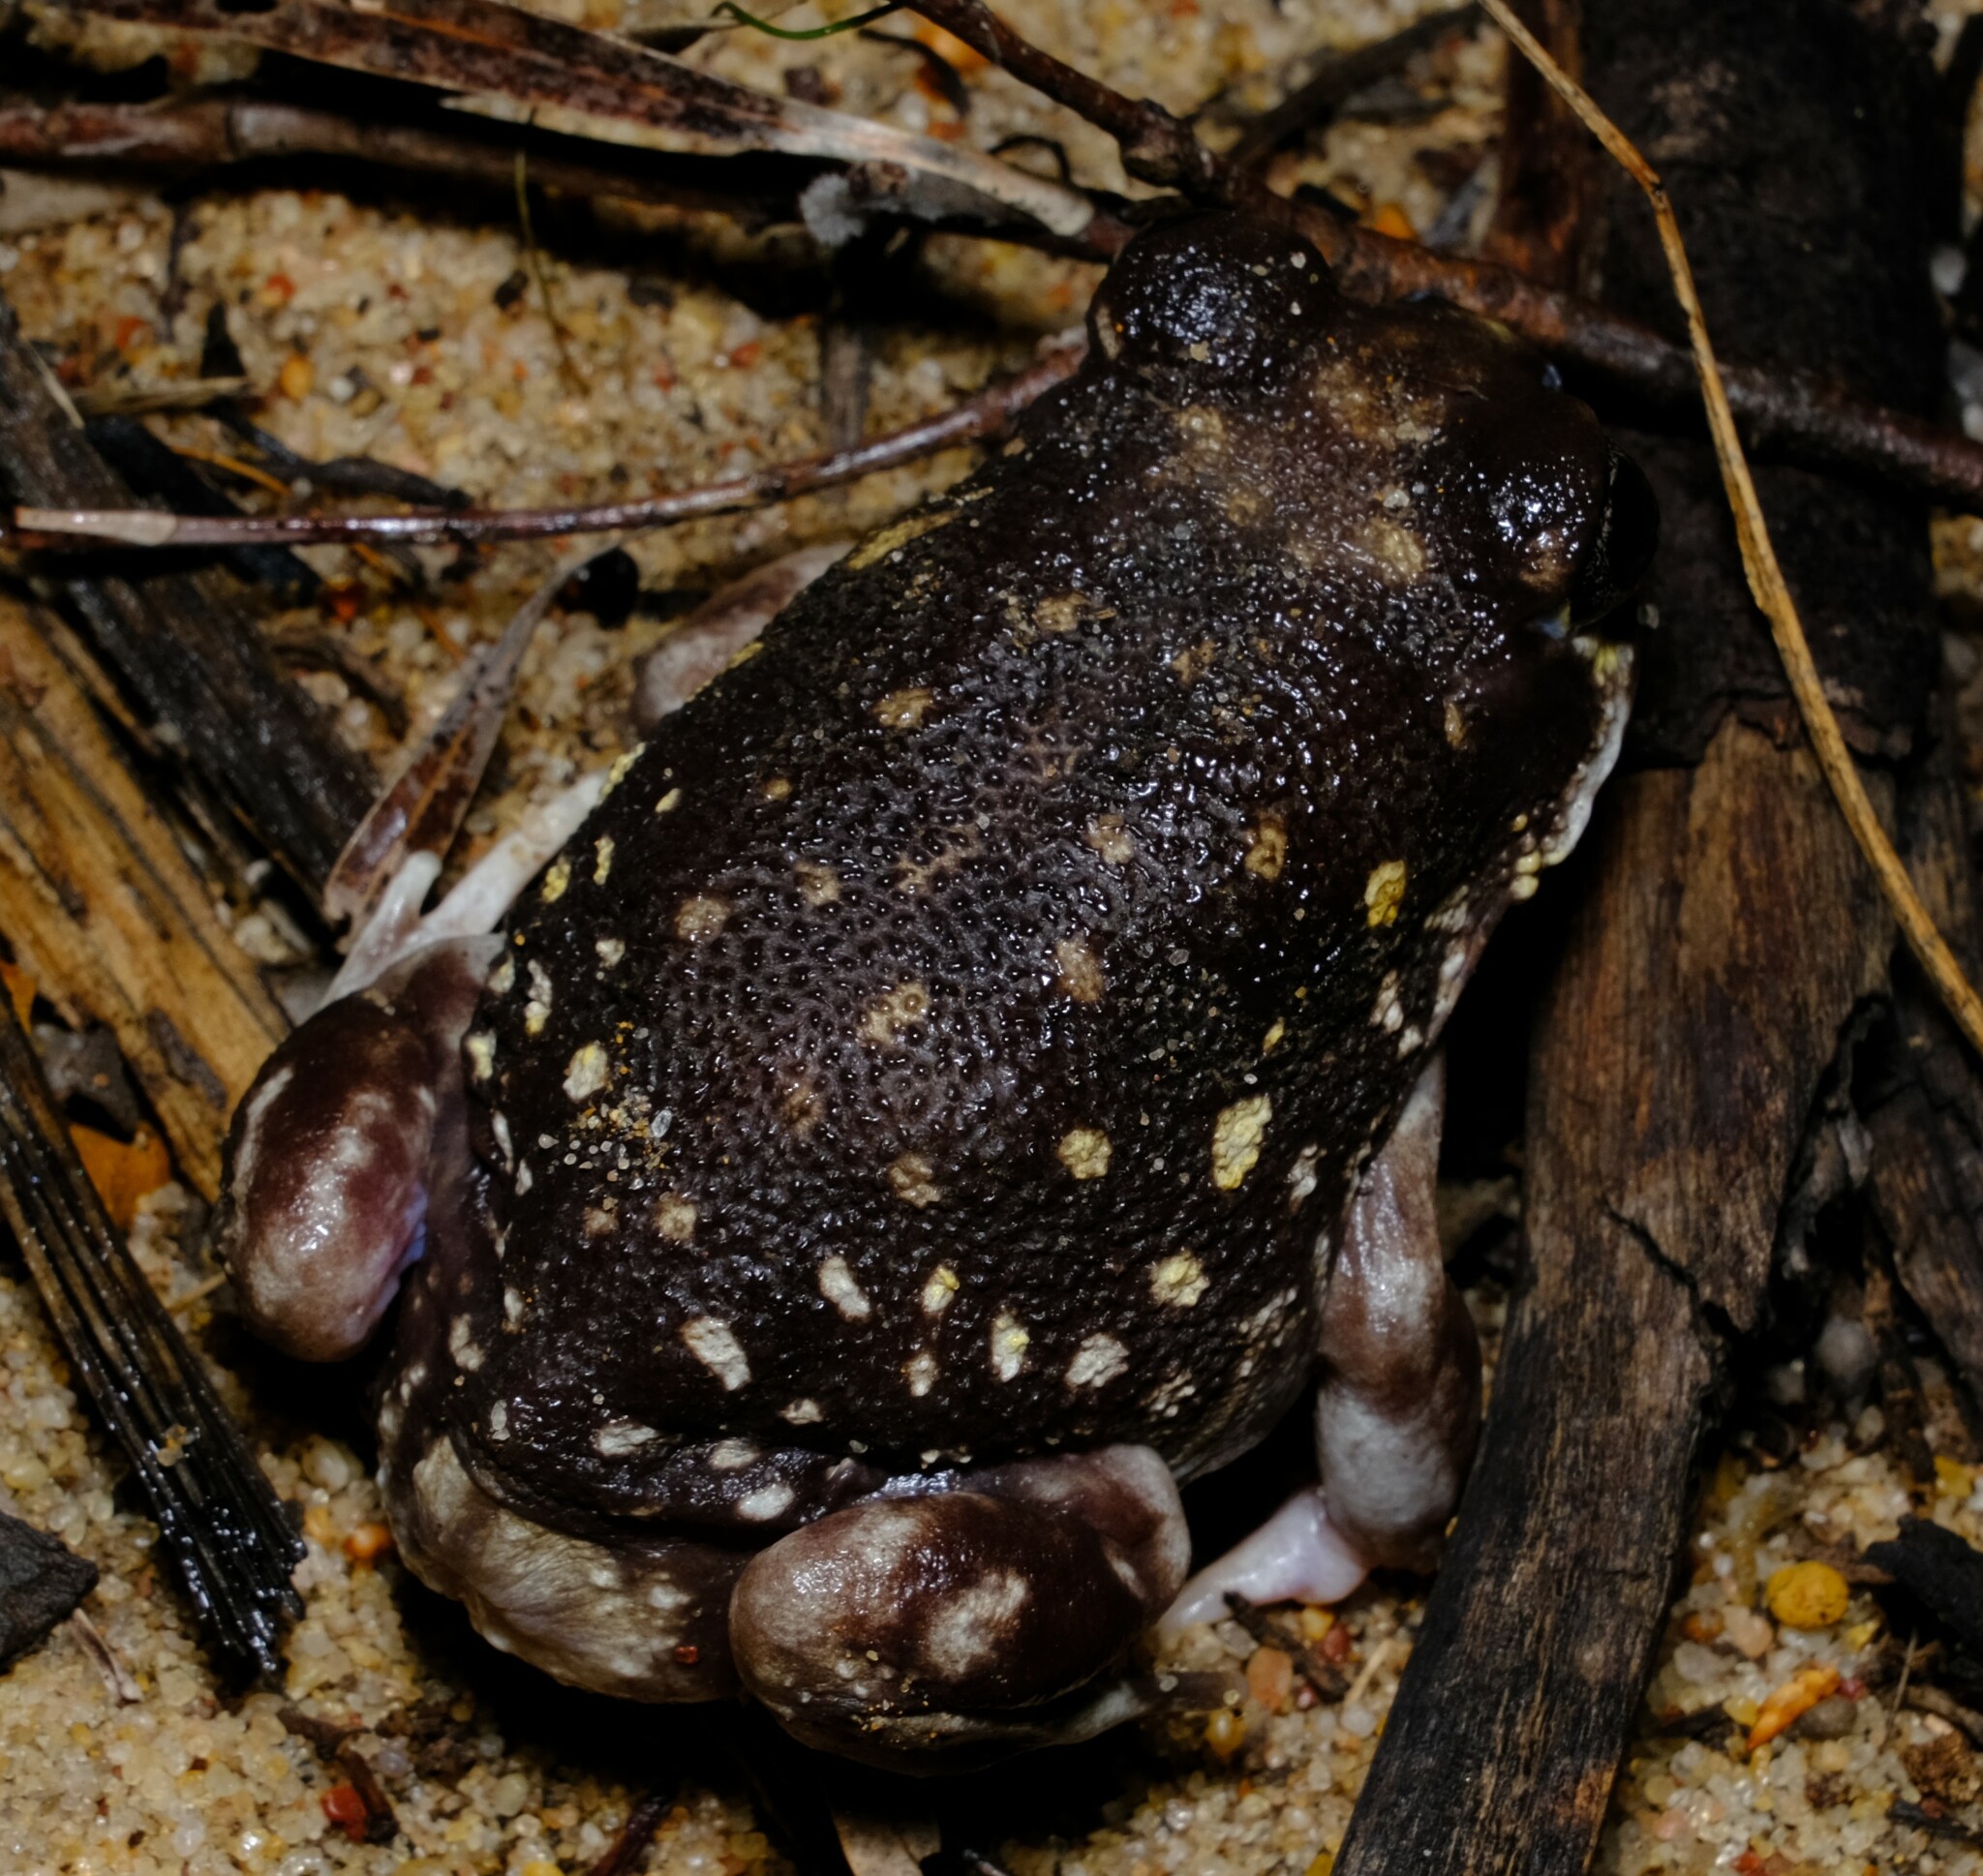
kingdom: Animalia
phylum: Chordata
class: Amphibia
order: Anura
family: Limnodynastidae
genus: Heleioporus
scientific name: Heleioporus albopunctatus
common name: Western spotted frog
